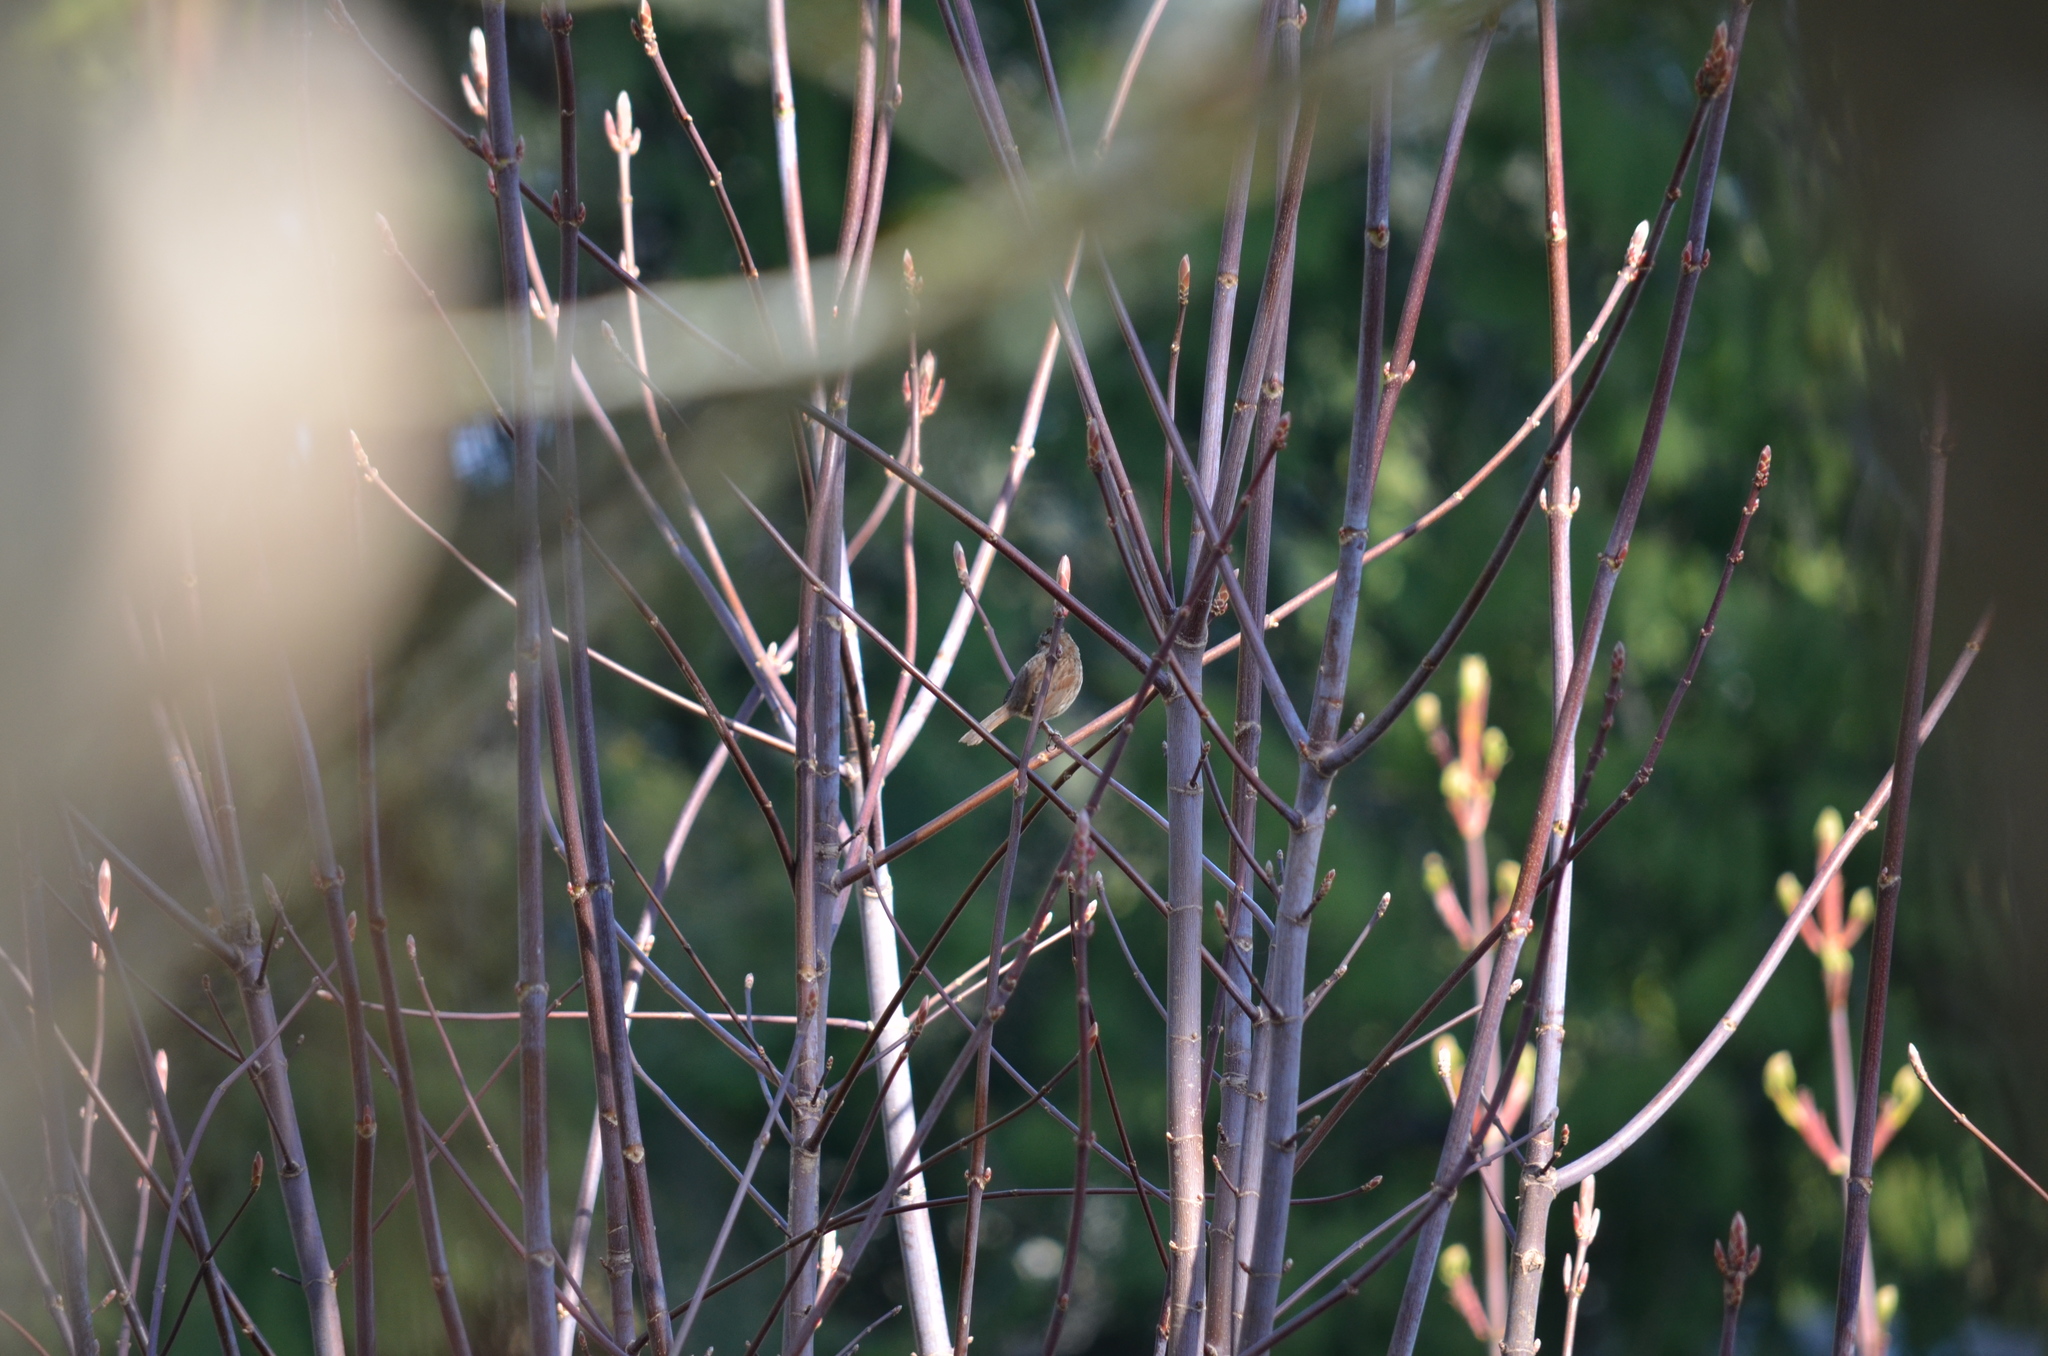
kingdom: Animalia
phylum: Chordata
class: Aves
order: Passeriformes
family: Passerellidae
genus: Melospiza
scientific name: Melospiza melodia
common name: Song sparrow
